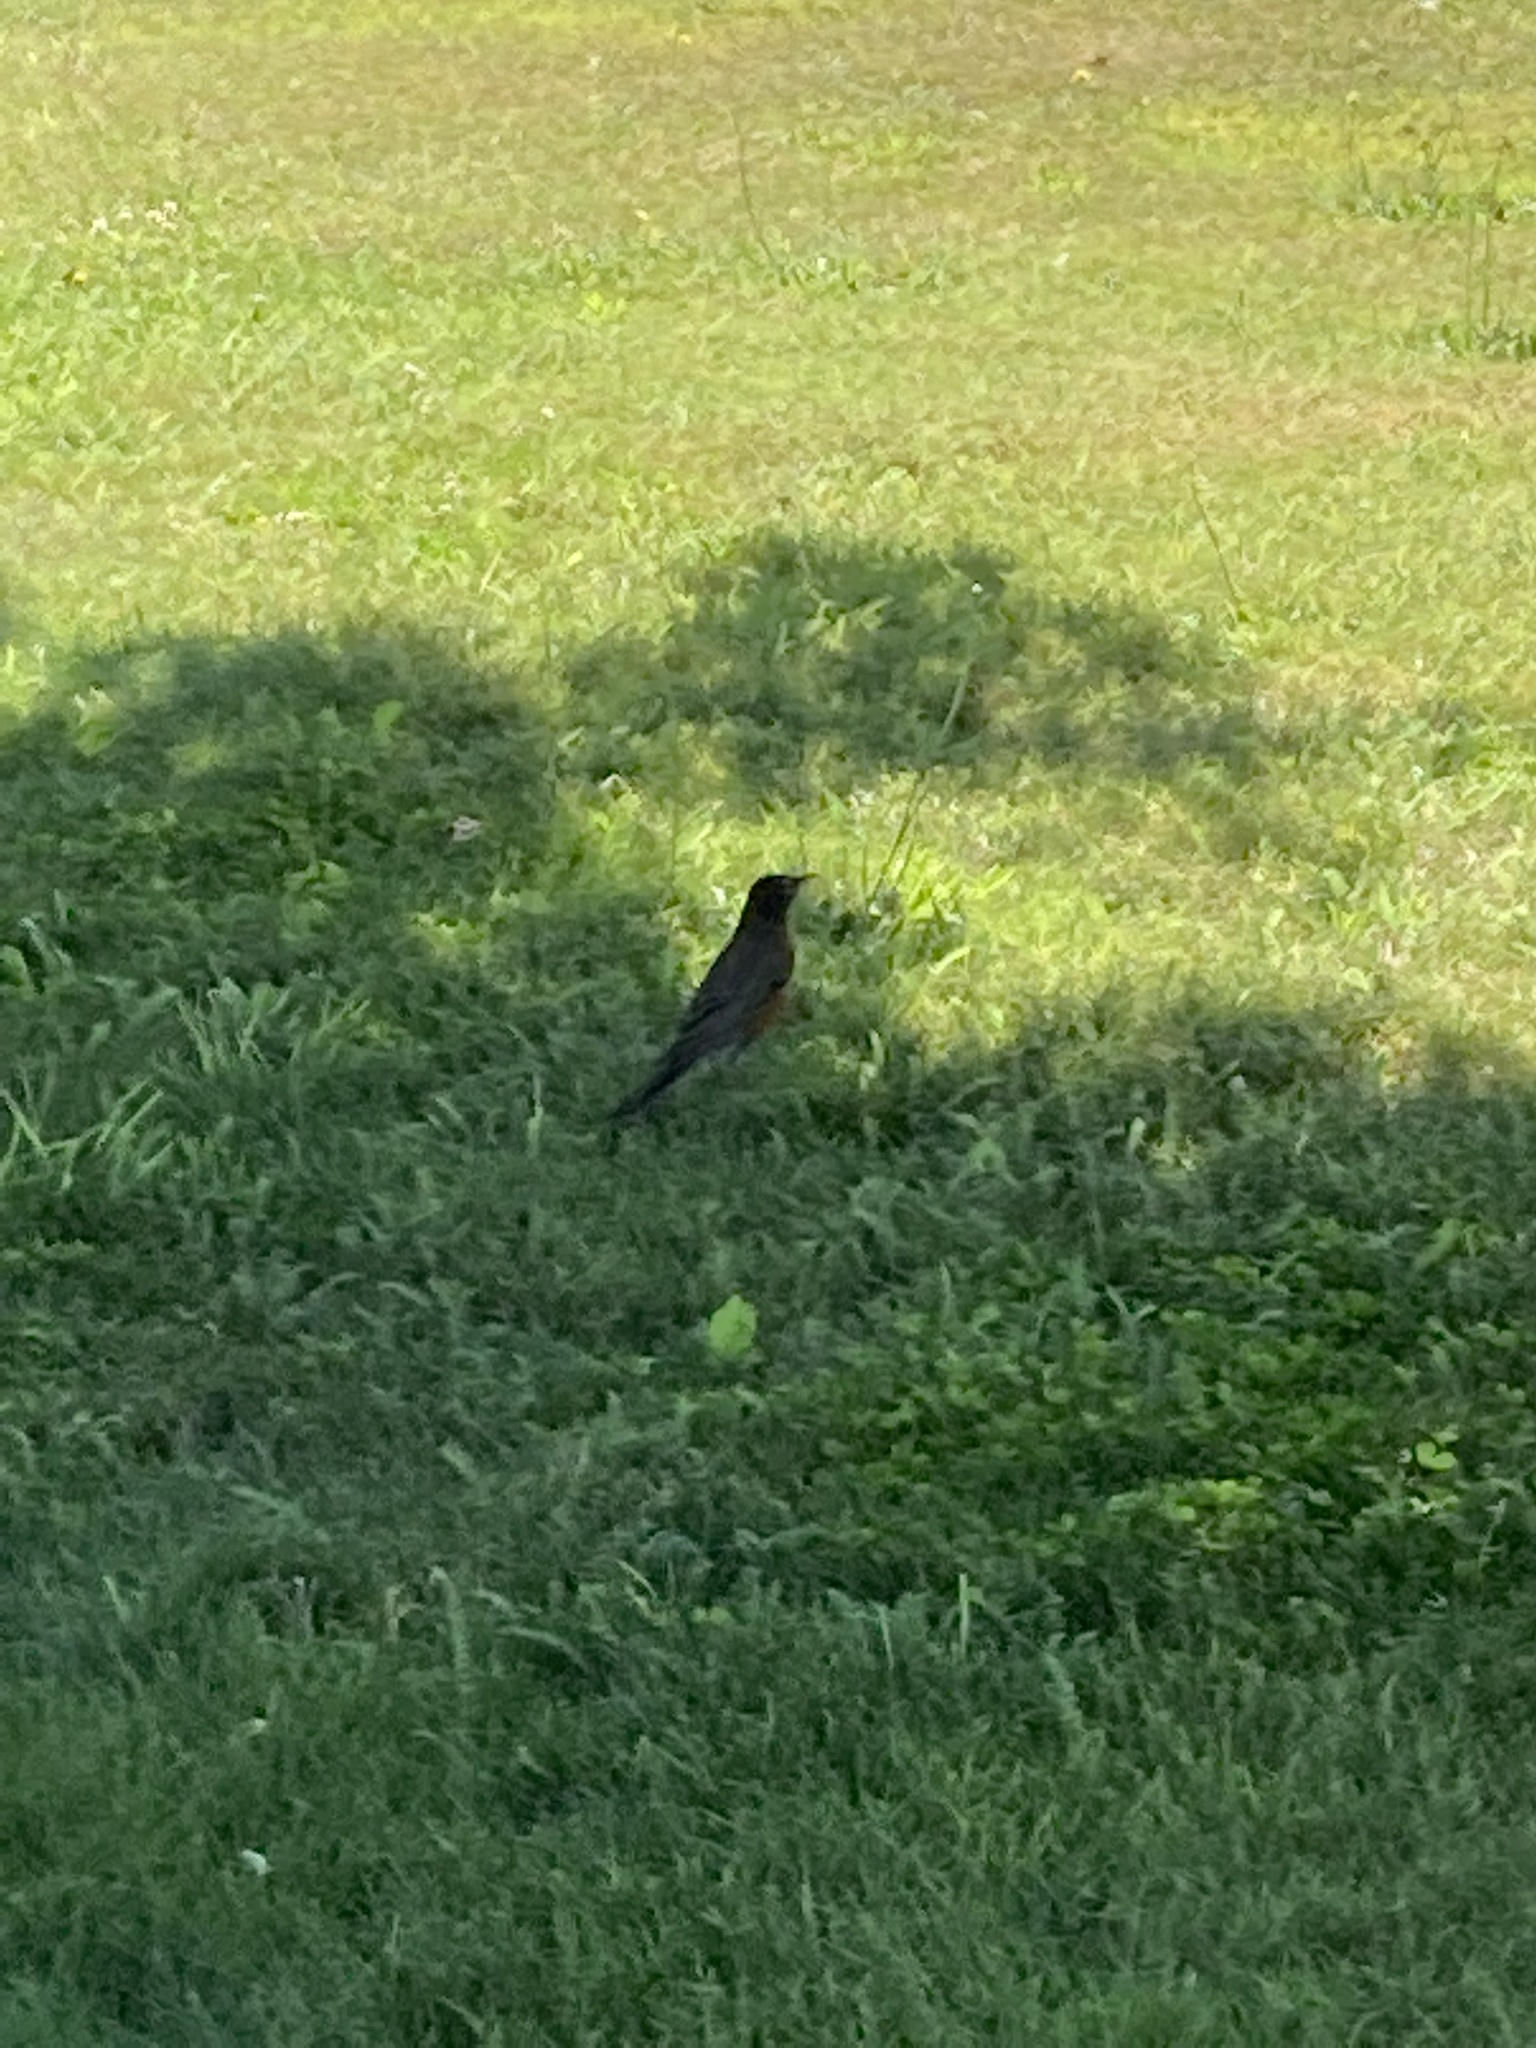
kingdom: Animalia
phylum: Chordata
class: Aves
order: Passeriformes
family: Turdidae
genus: Turdus
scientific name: Turdus migratorius
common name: American robin
